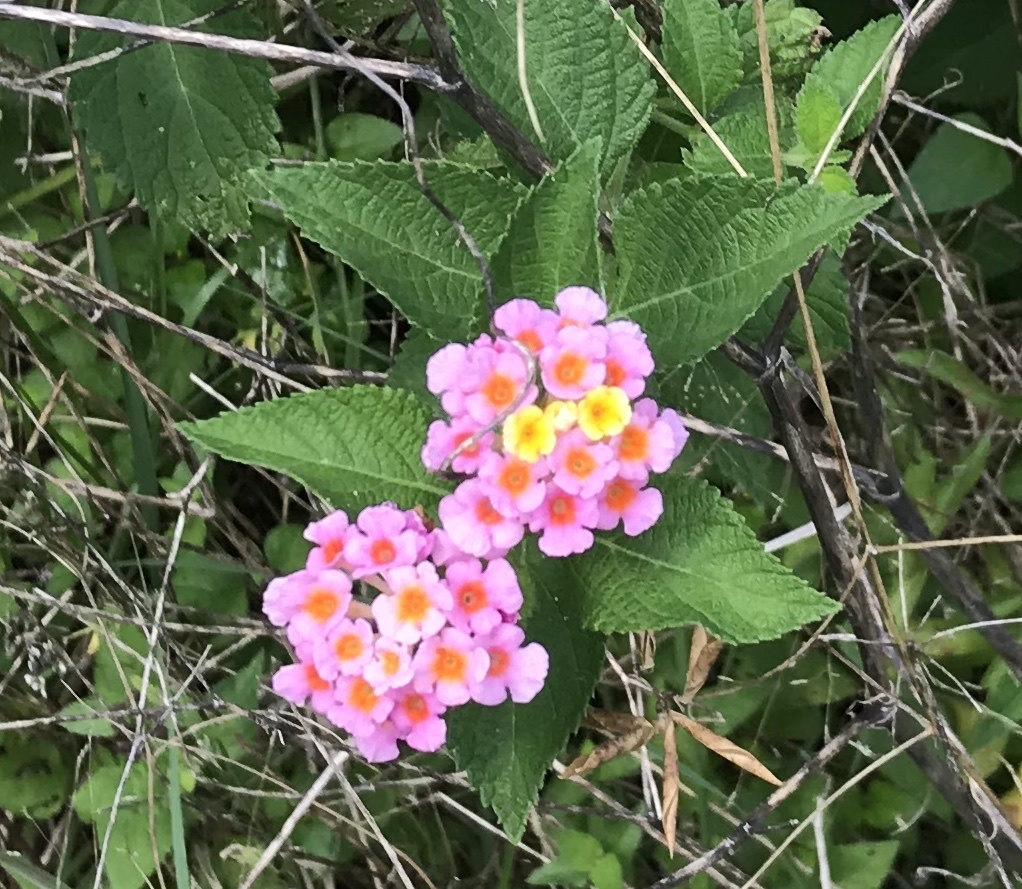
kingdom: Plantae
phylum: Tracheophyta
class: Magnoliopsida
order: Lamiales
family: Verbenaceae
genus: Lantana
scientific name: Lantana strigocamara
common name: Lantana
